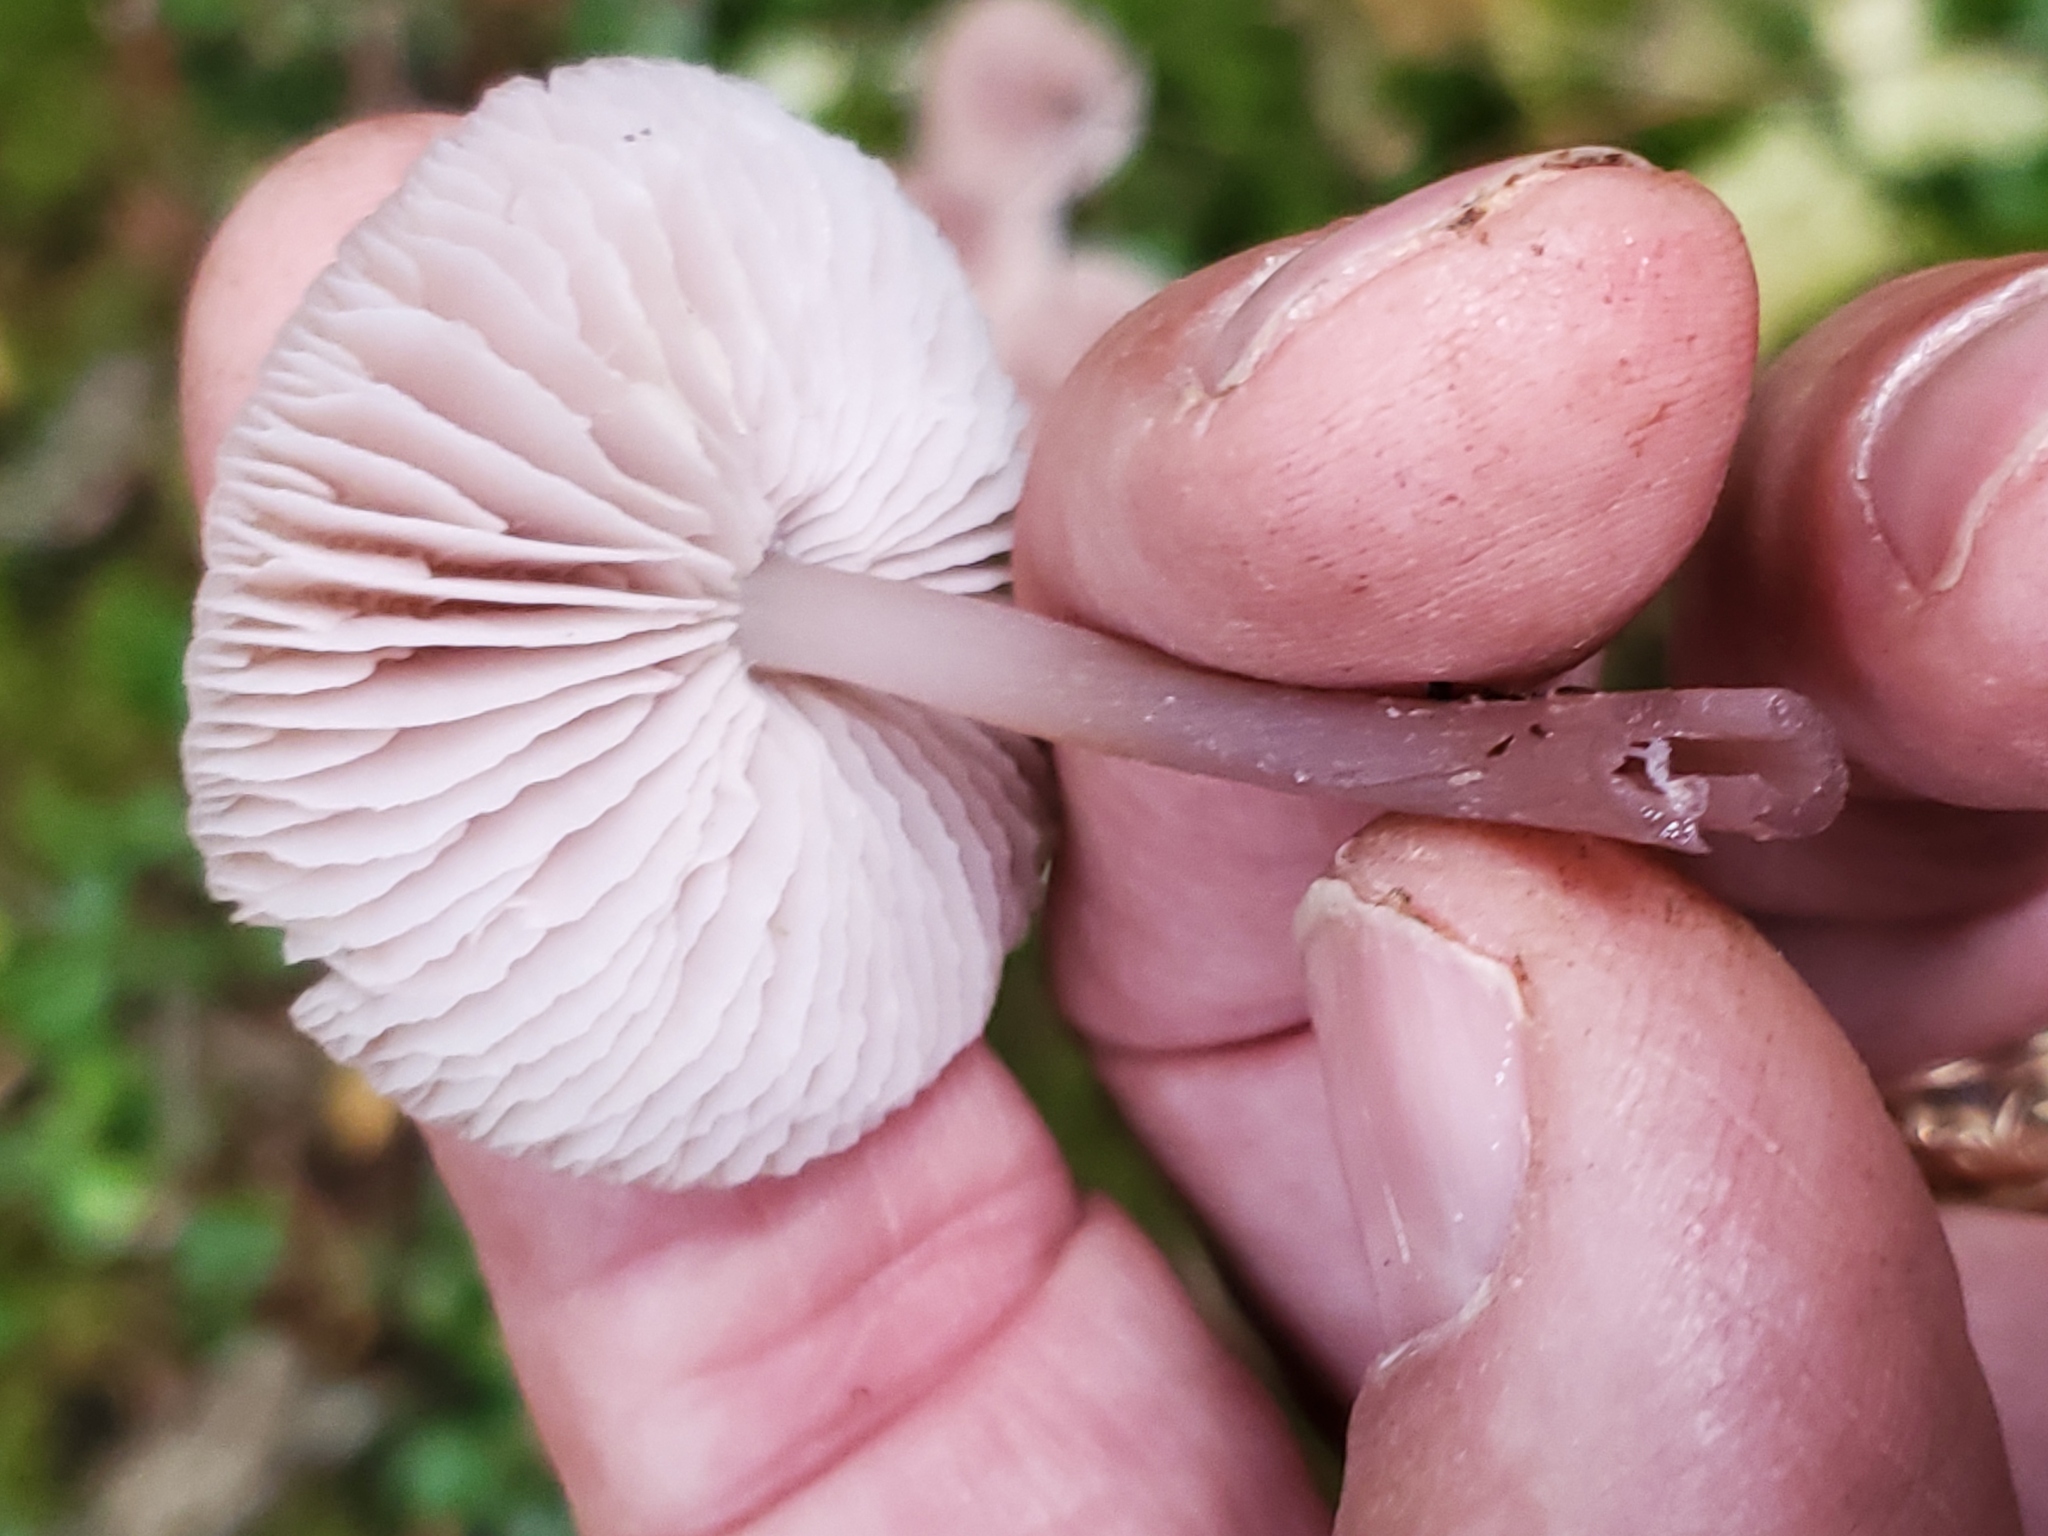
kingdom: Fungi
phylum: Basidiomycota
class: Agaricomycetes
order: Agaricales
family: Mycenaceae
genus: Mycena
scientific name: Mycena pura
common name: Lilac bonnet
